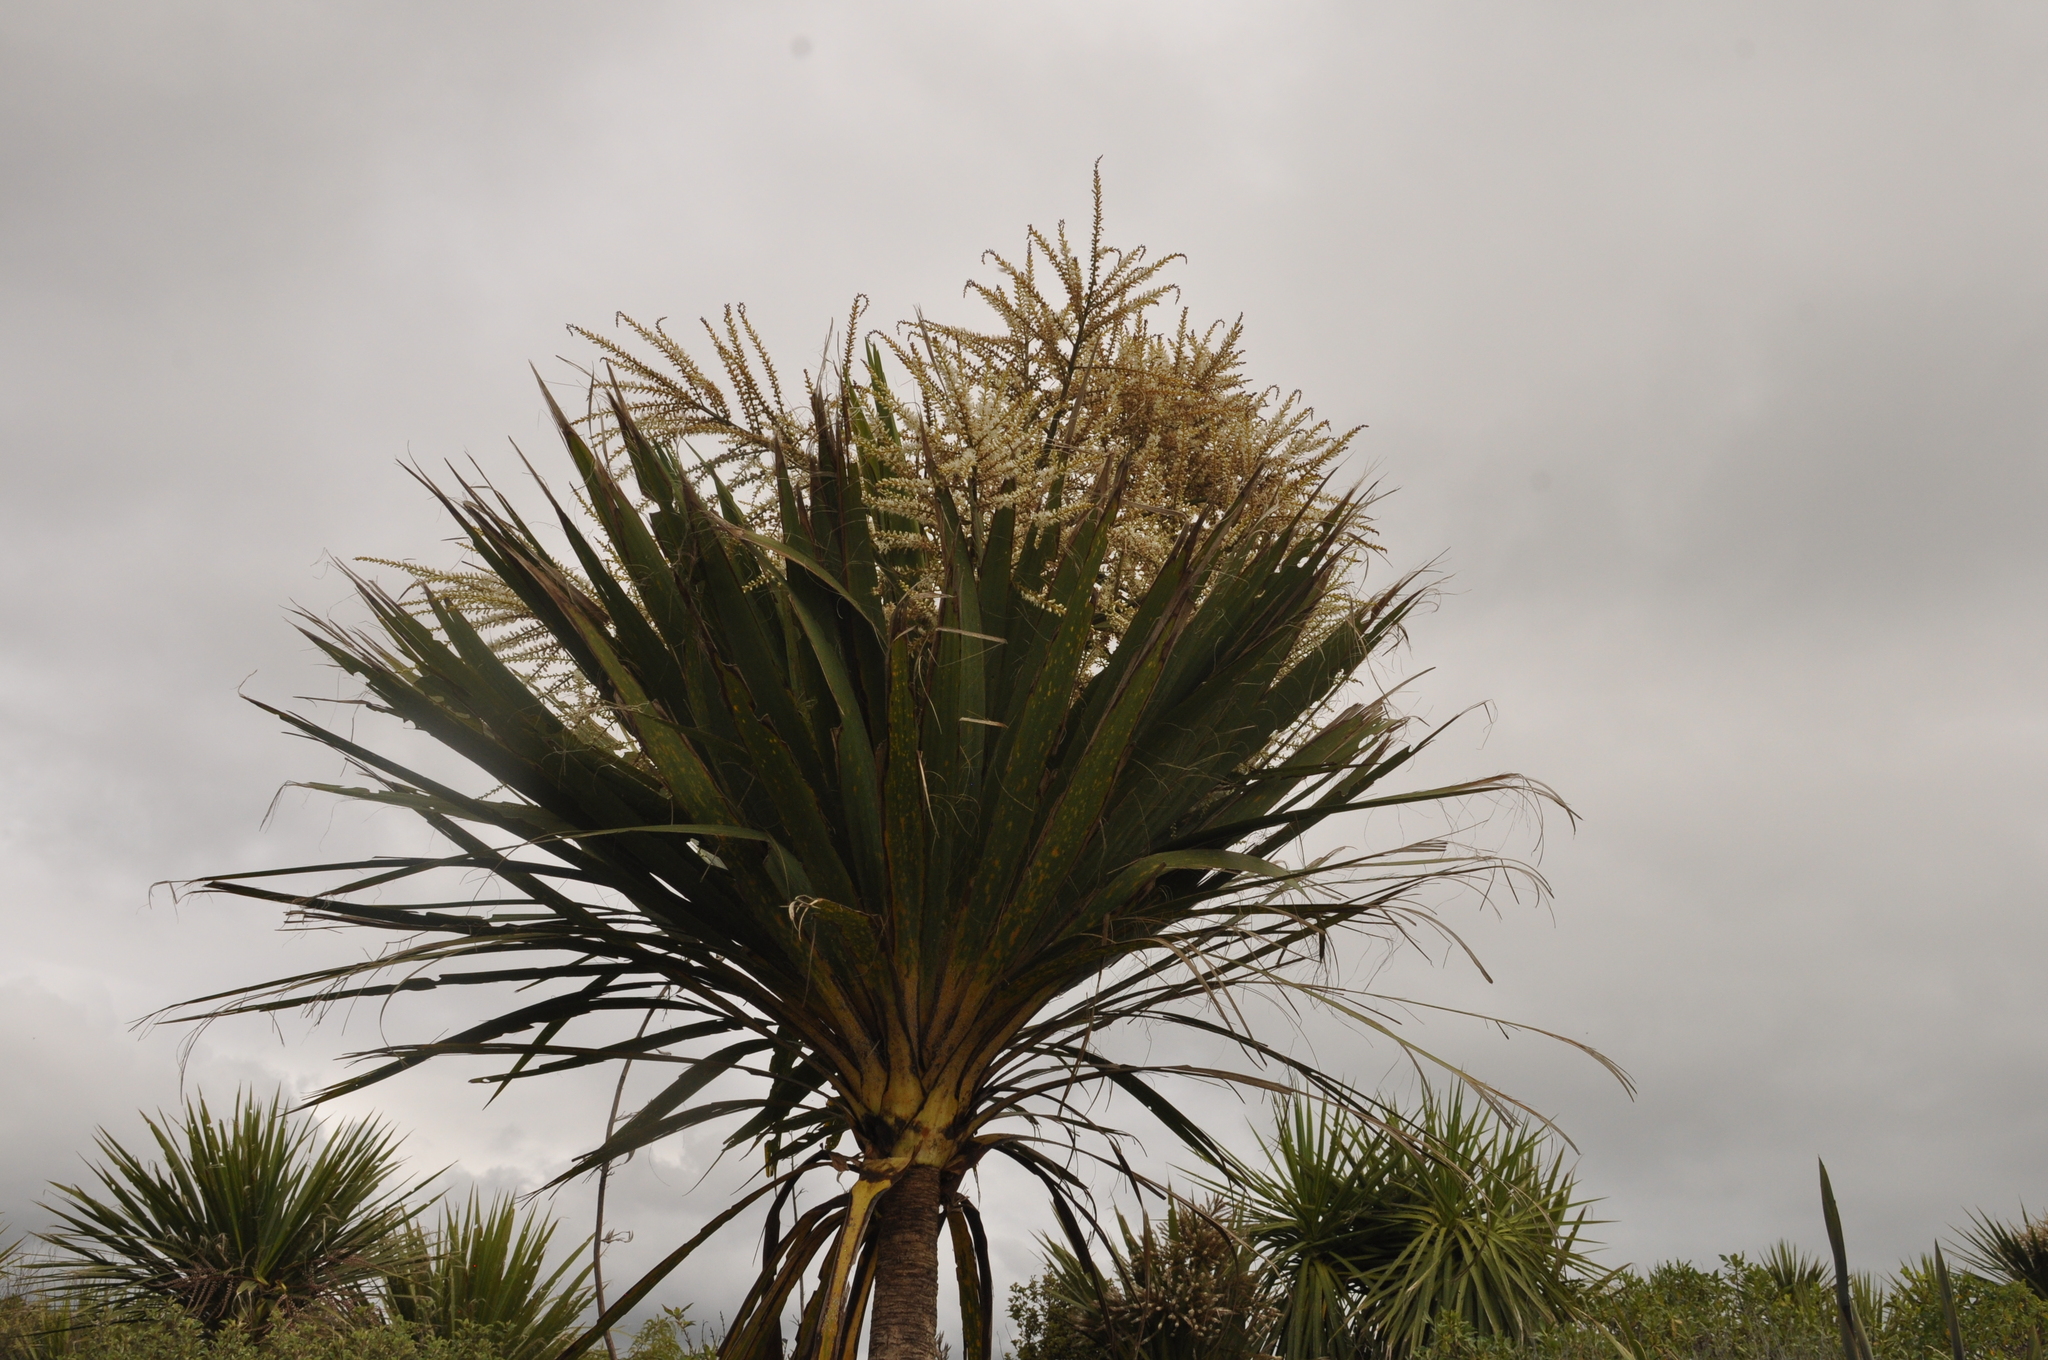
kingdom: Plantae
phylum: Tracheophyta
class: Liliopsida
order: Asparagales
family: Asparagaceae
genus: Cordyline
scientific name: Cordyline australis
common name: Cabbage-palm
